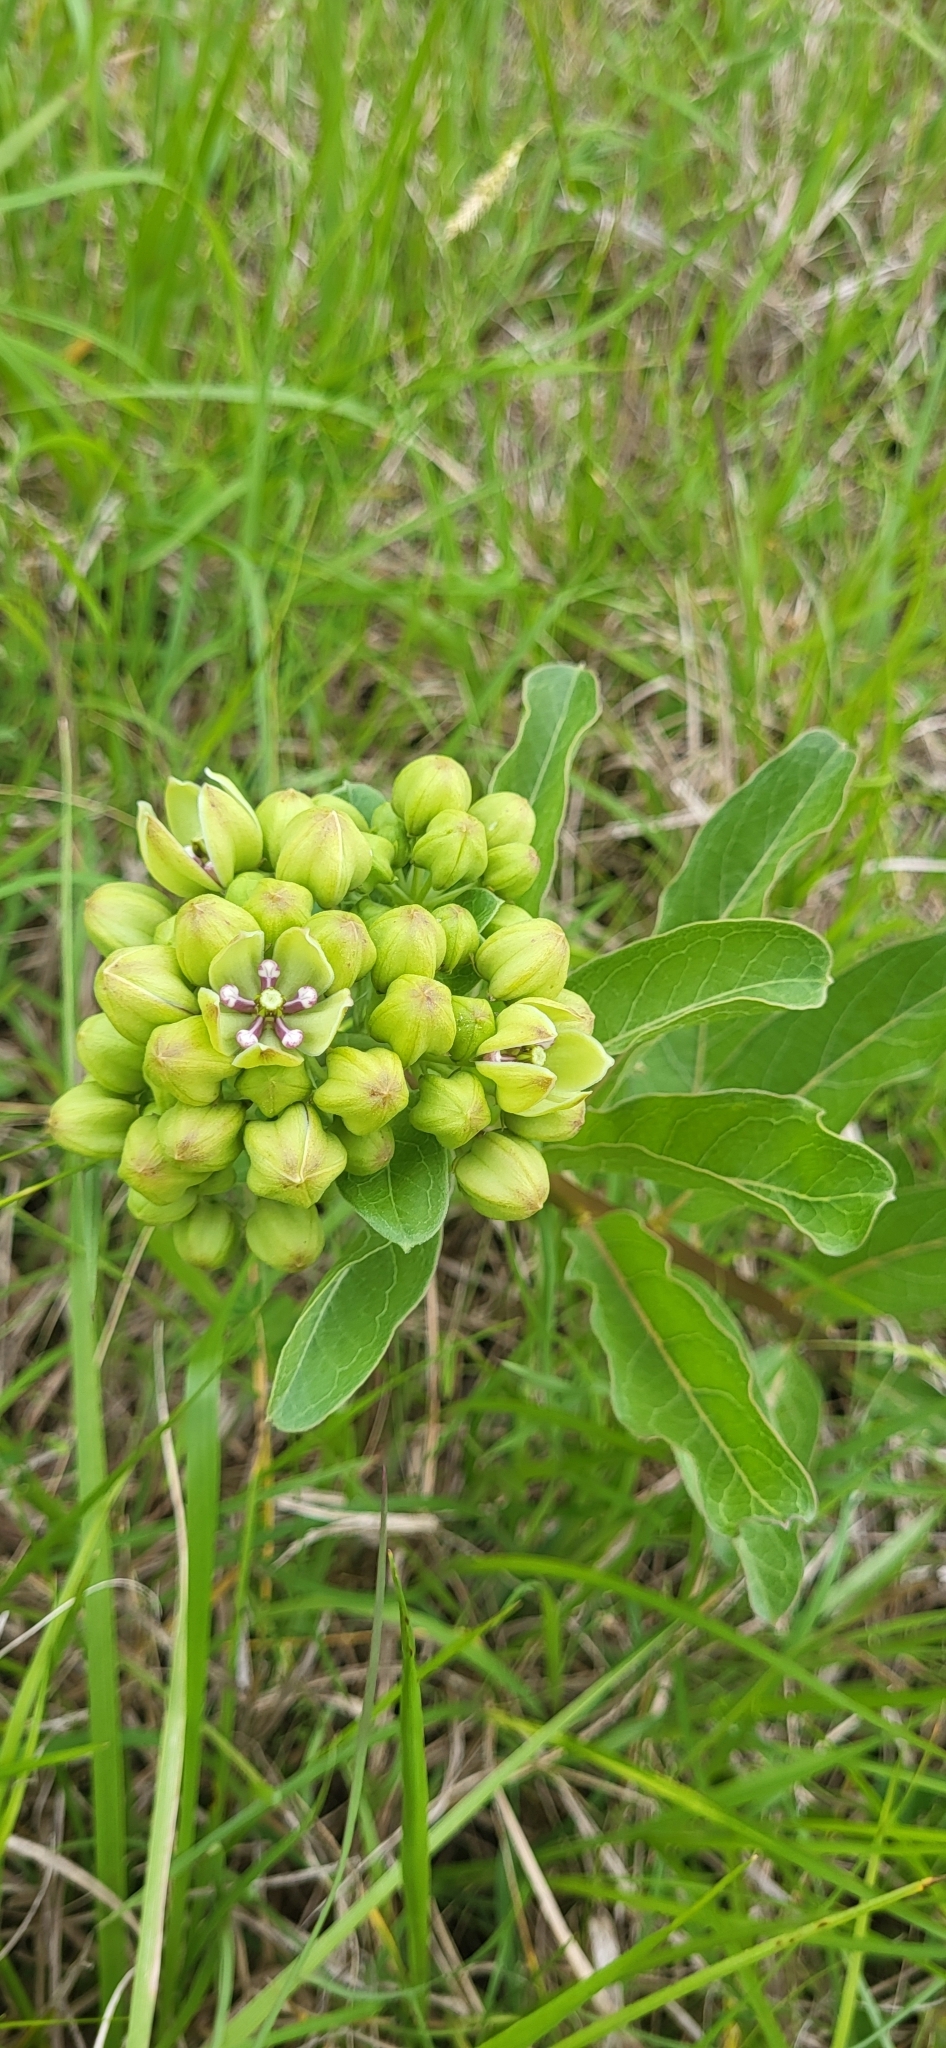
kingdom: Plantae
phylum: Tracheophyta
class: Magnoliopsida
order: Gentianales
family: Apocynaceae
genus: Asclepias
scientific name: Asclepias viridis
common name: Antelope-horns
